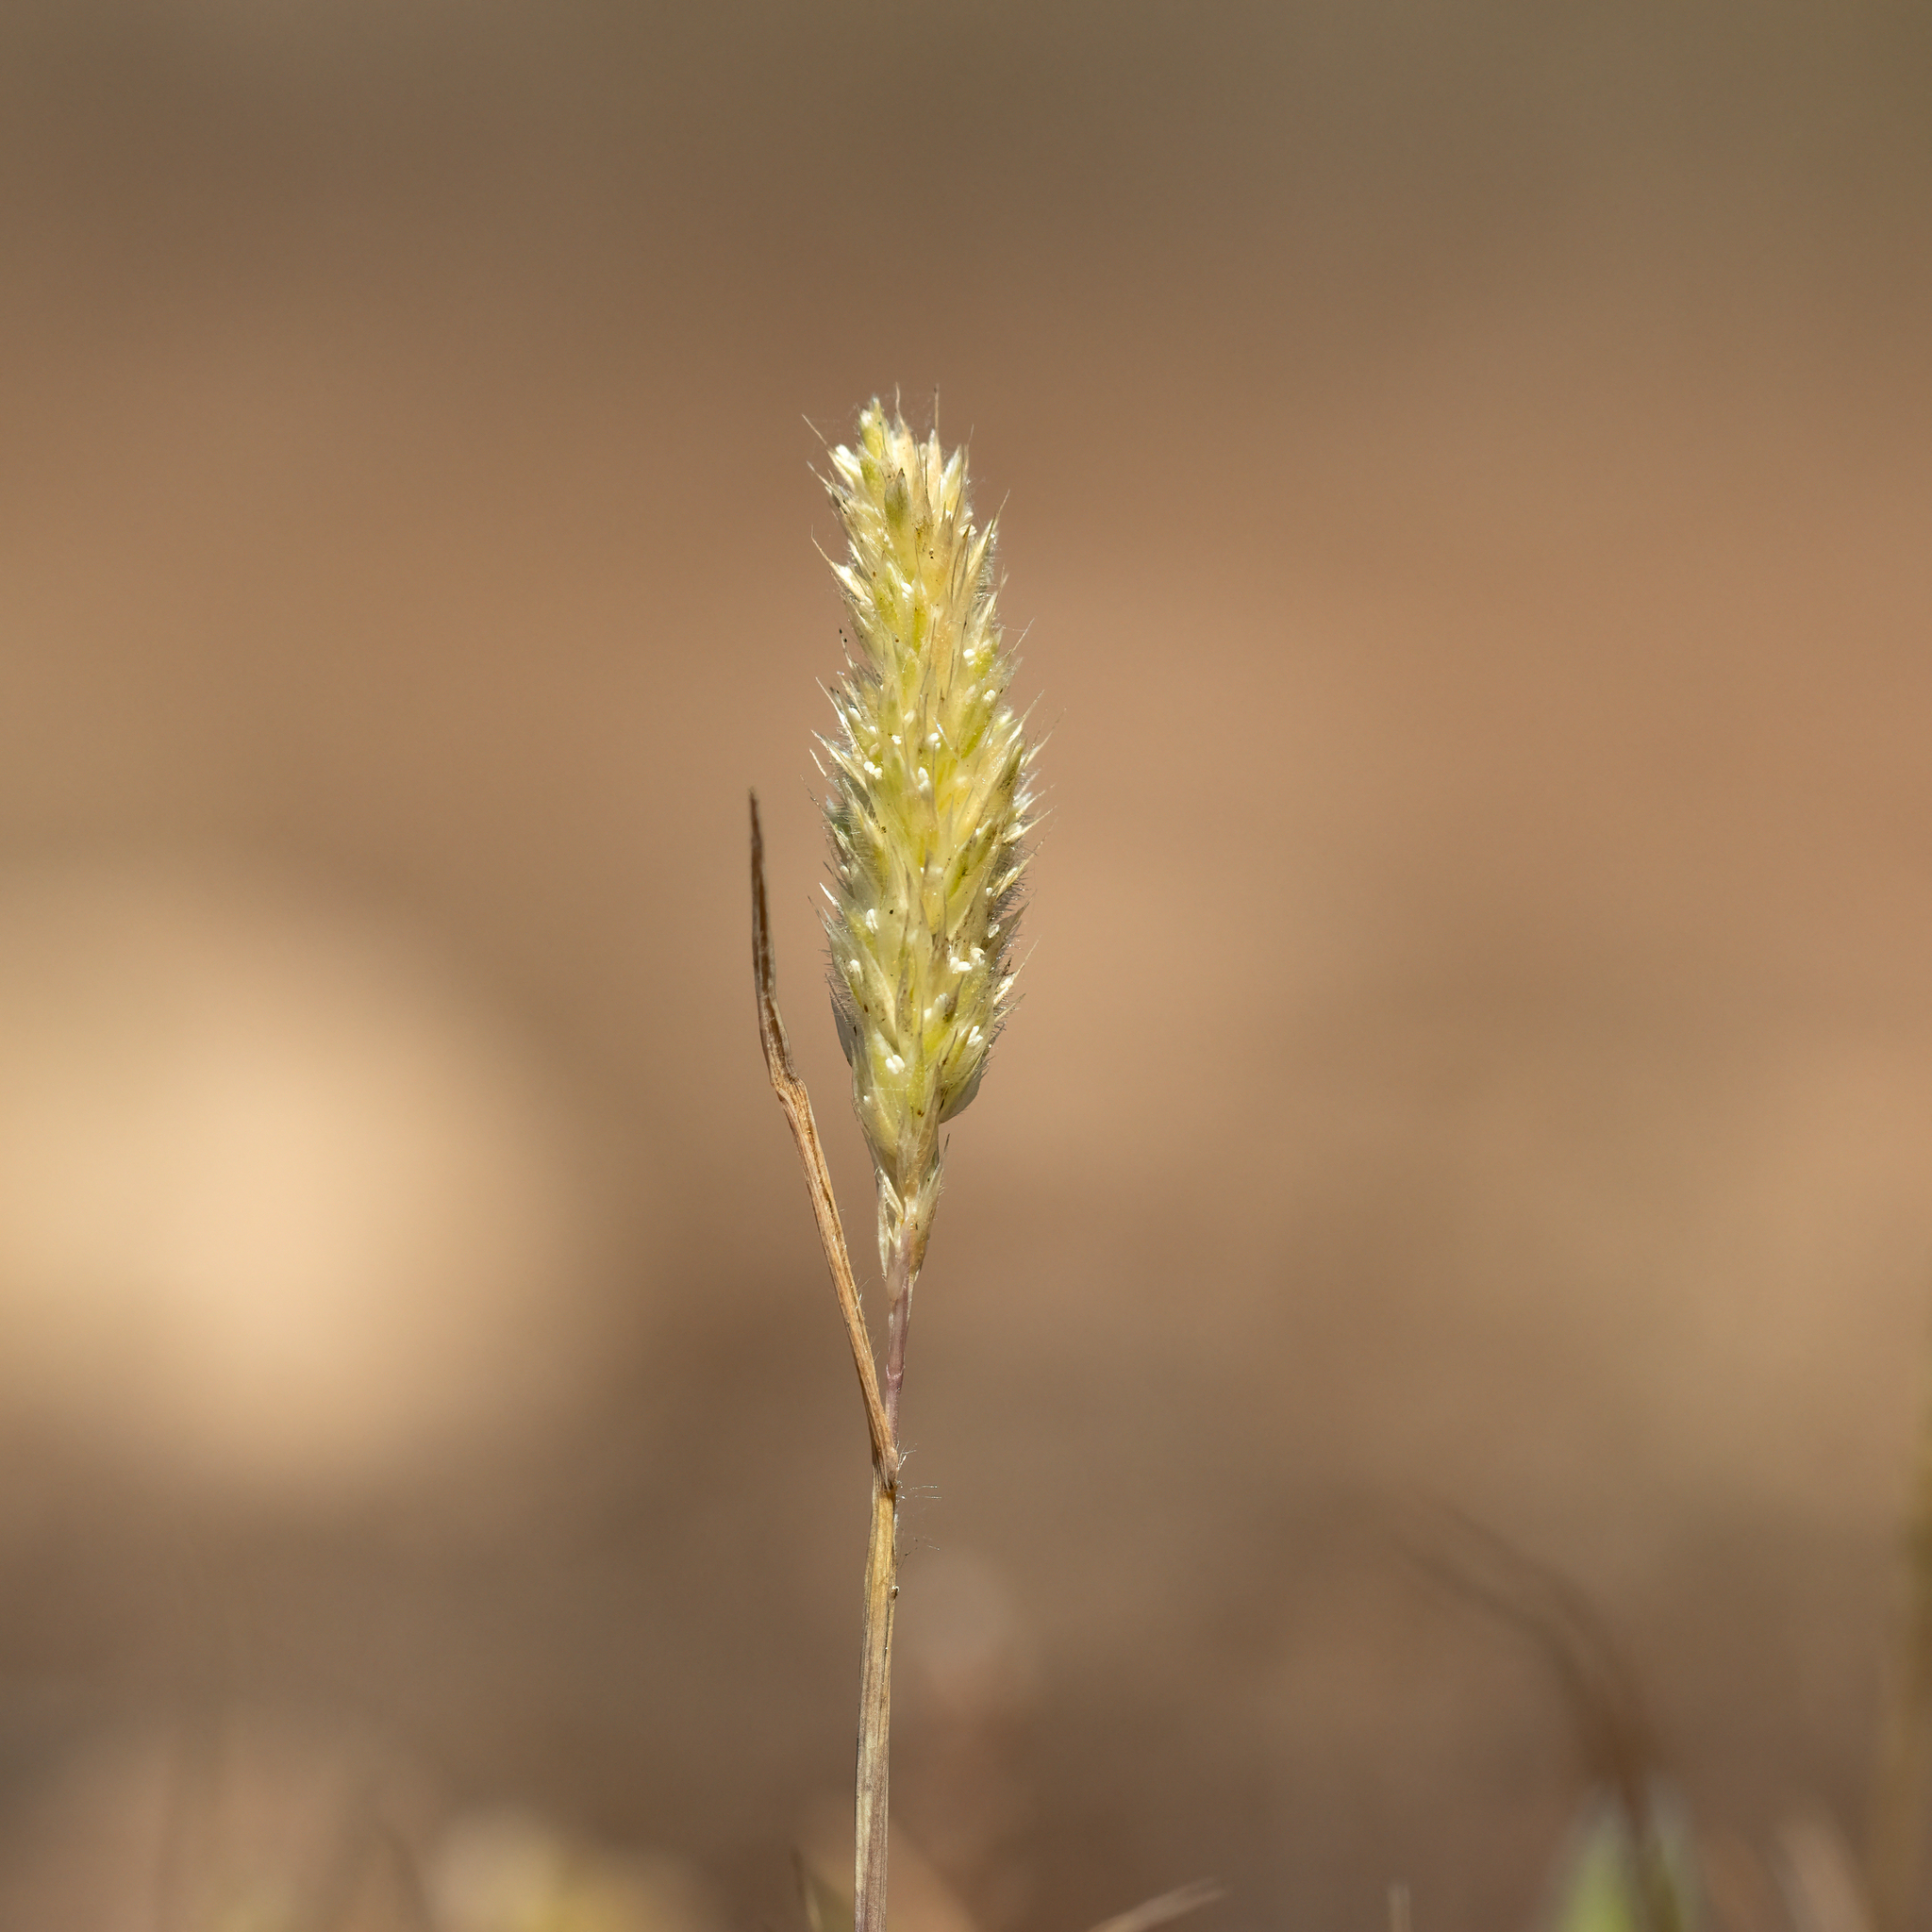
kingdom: Plantae
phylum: Tracheophyta
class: Liliopsida
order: Poales
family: Poaceae
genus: Rostraria
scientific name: Rostraria cristata
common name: Mediterranean hair-grass
